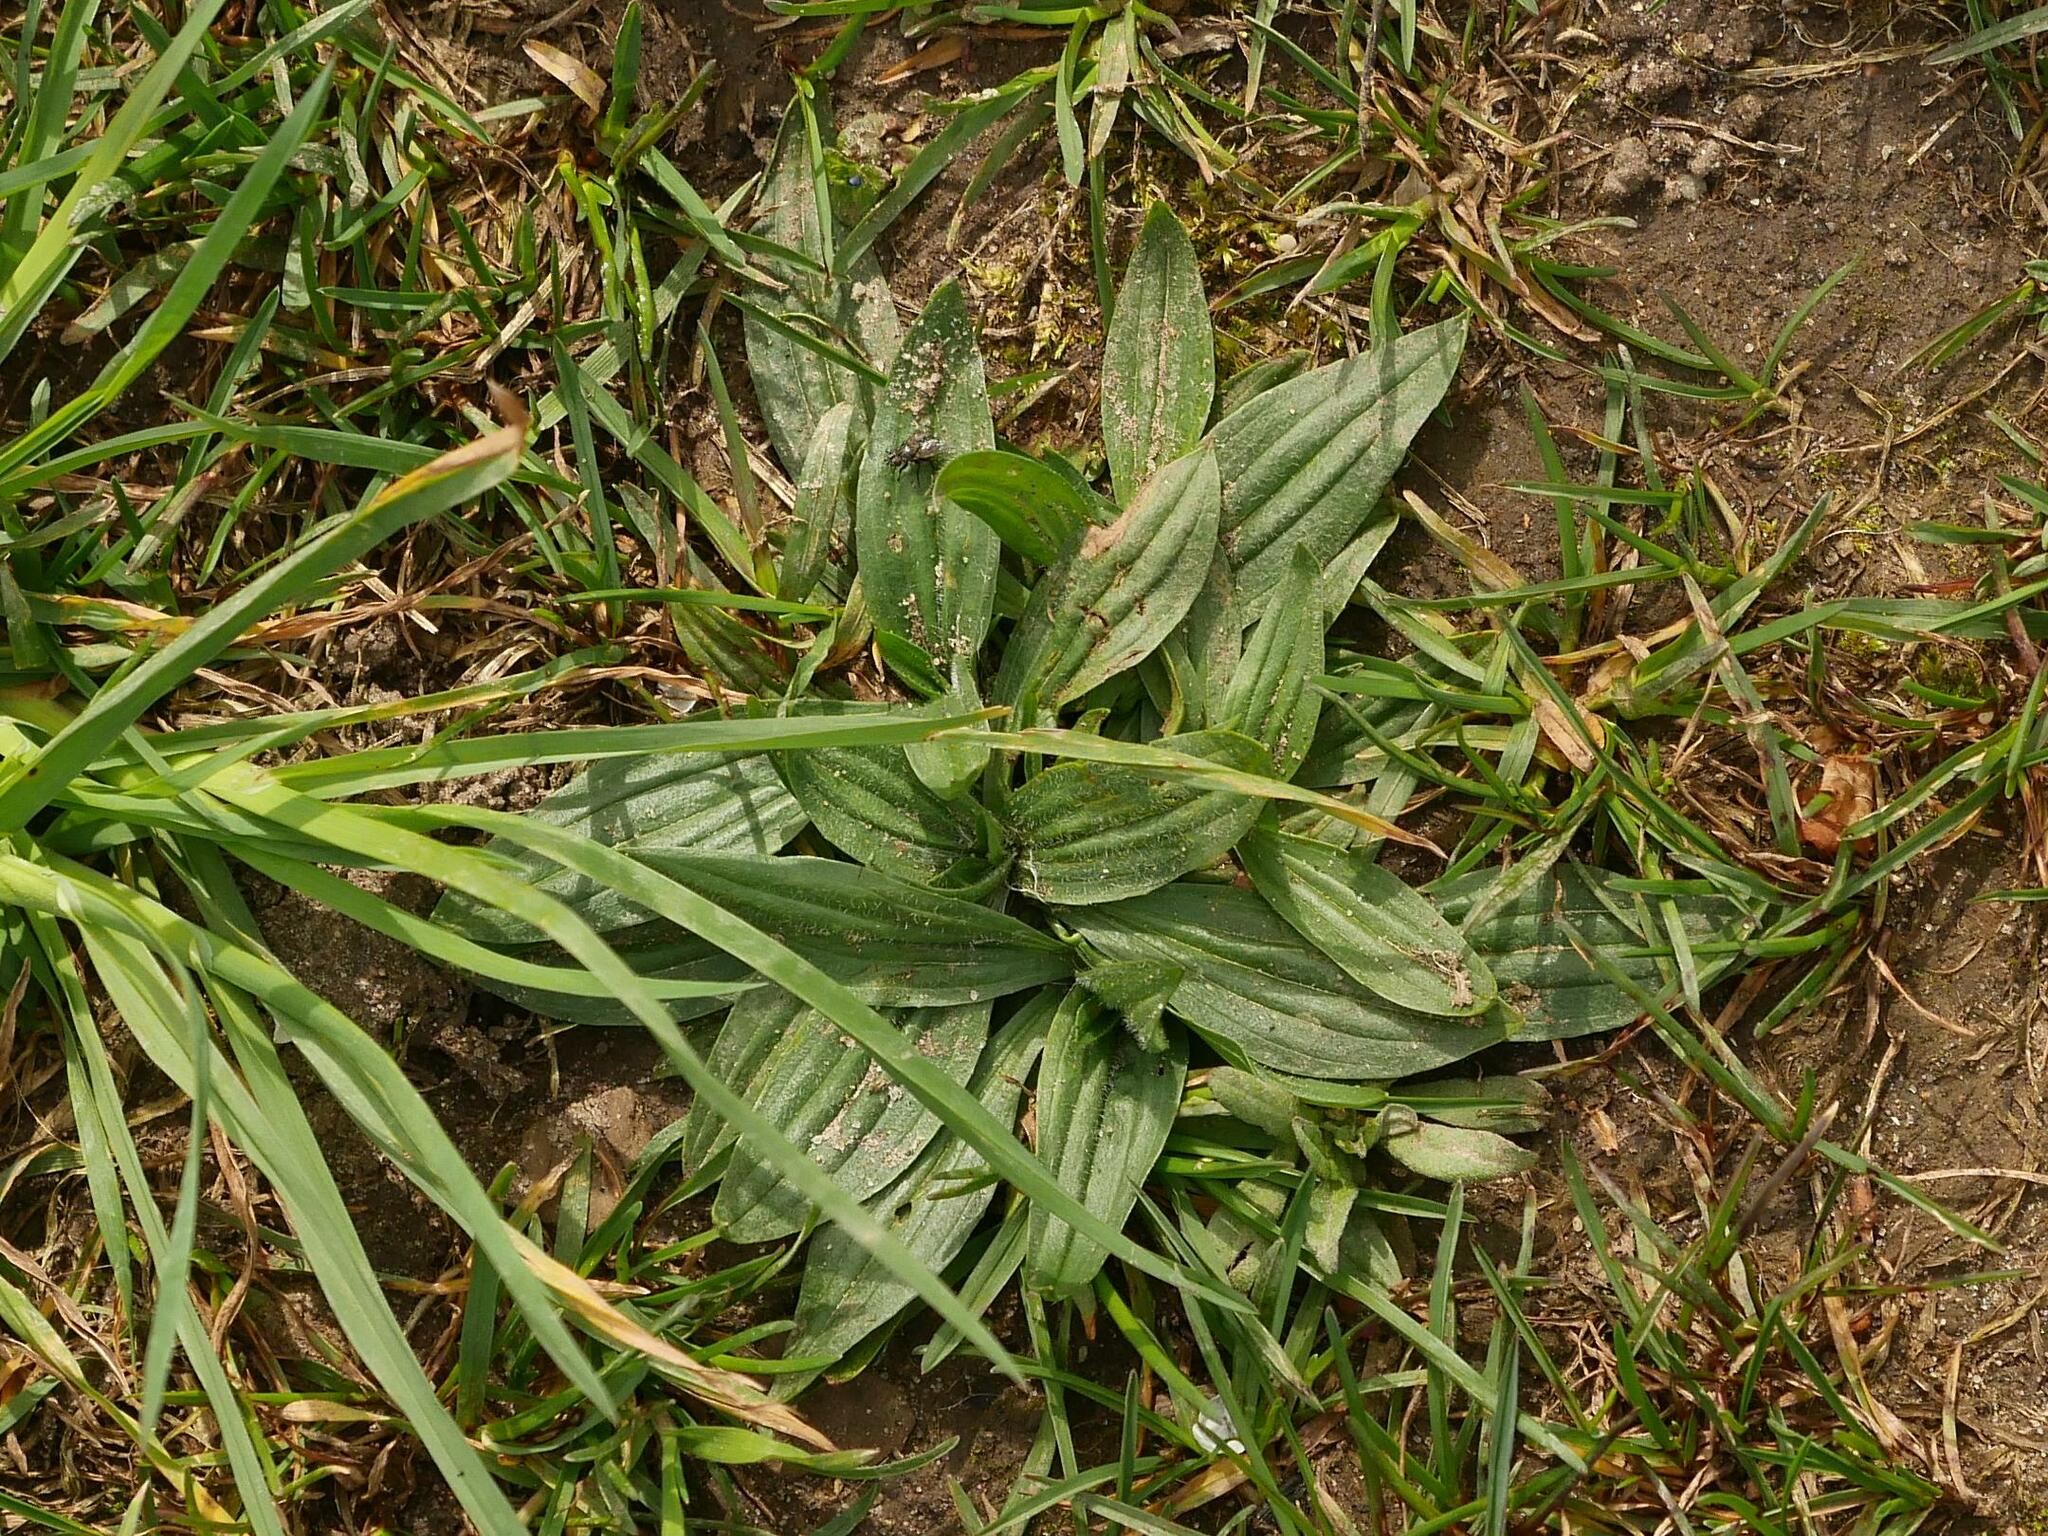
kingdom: Plantae
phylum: Tracheophyta
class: Magnoliopsida
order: Lamiales
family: Plantaginaceae
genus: Plantago
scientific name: Plantago lanceolata
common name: Ribwort plantain
